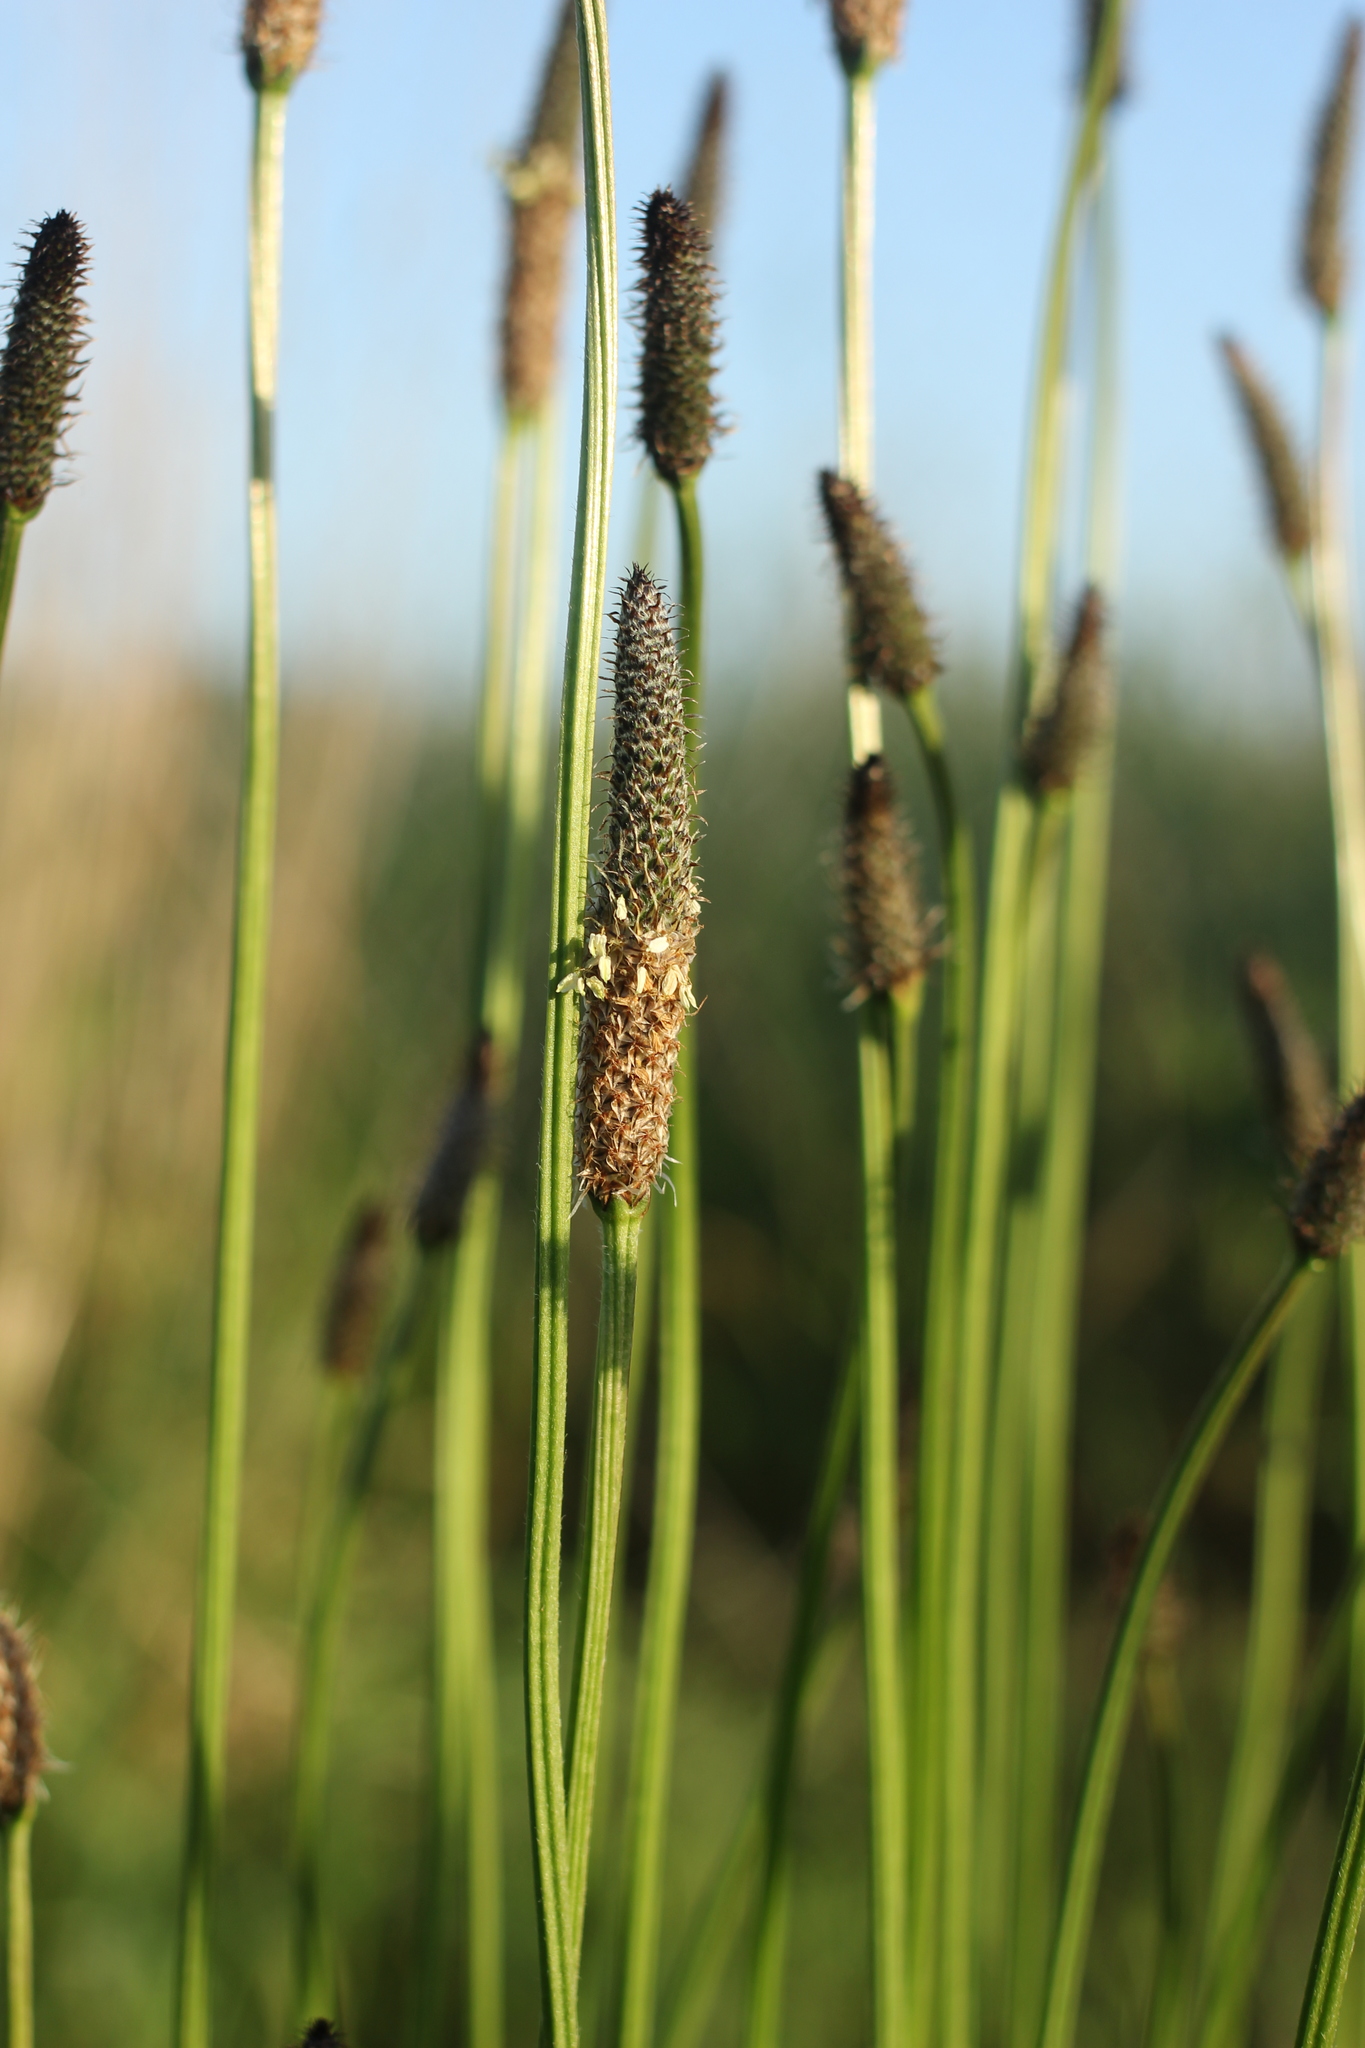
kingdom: Plantae
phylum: Tracheophyta
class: Magnoliopsida
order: Lamiales
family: Plantaginaceae
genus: Plantago
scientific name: Plantago lanceolata
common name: Ribwort plantain
